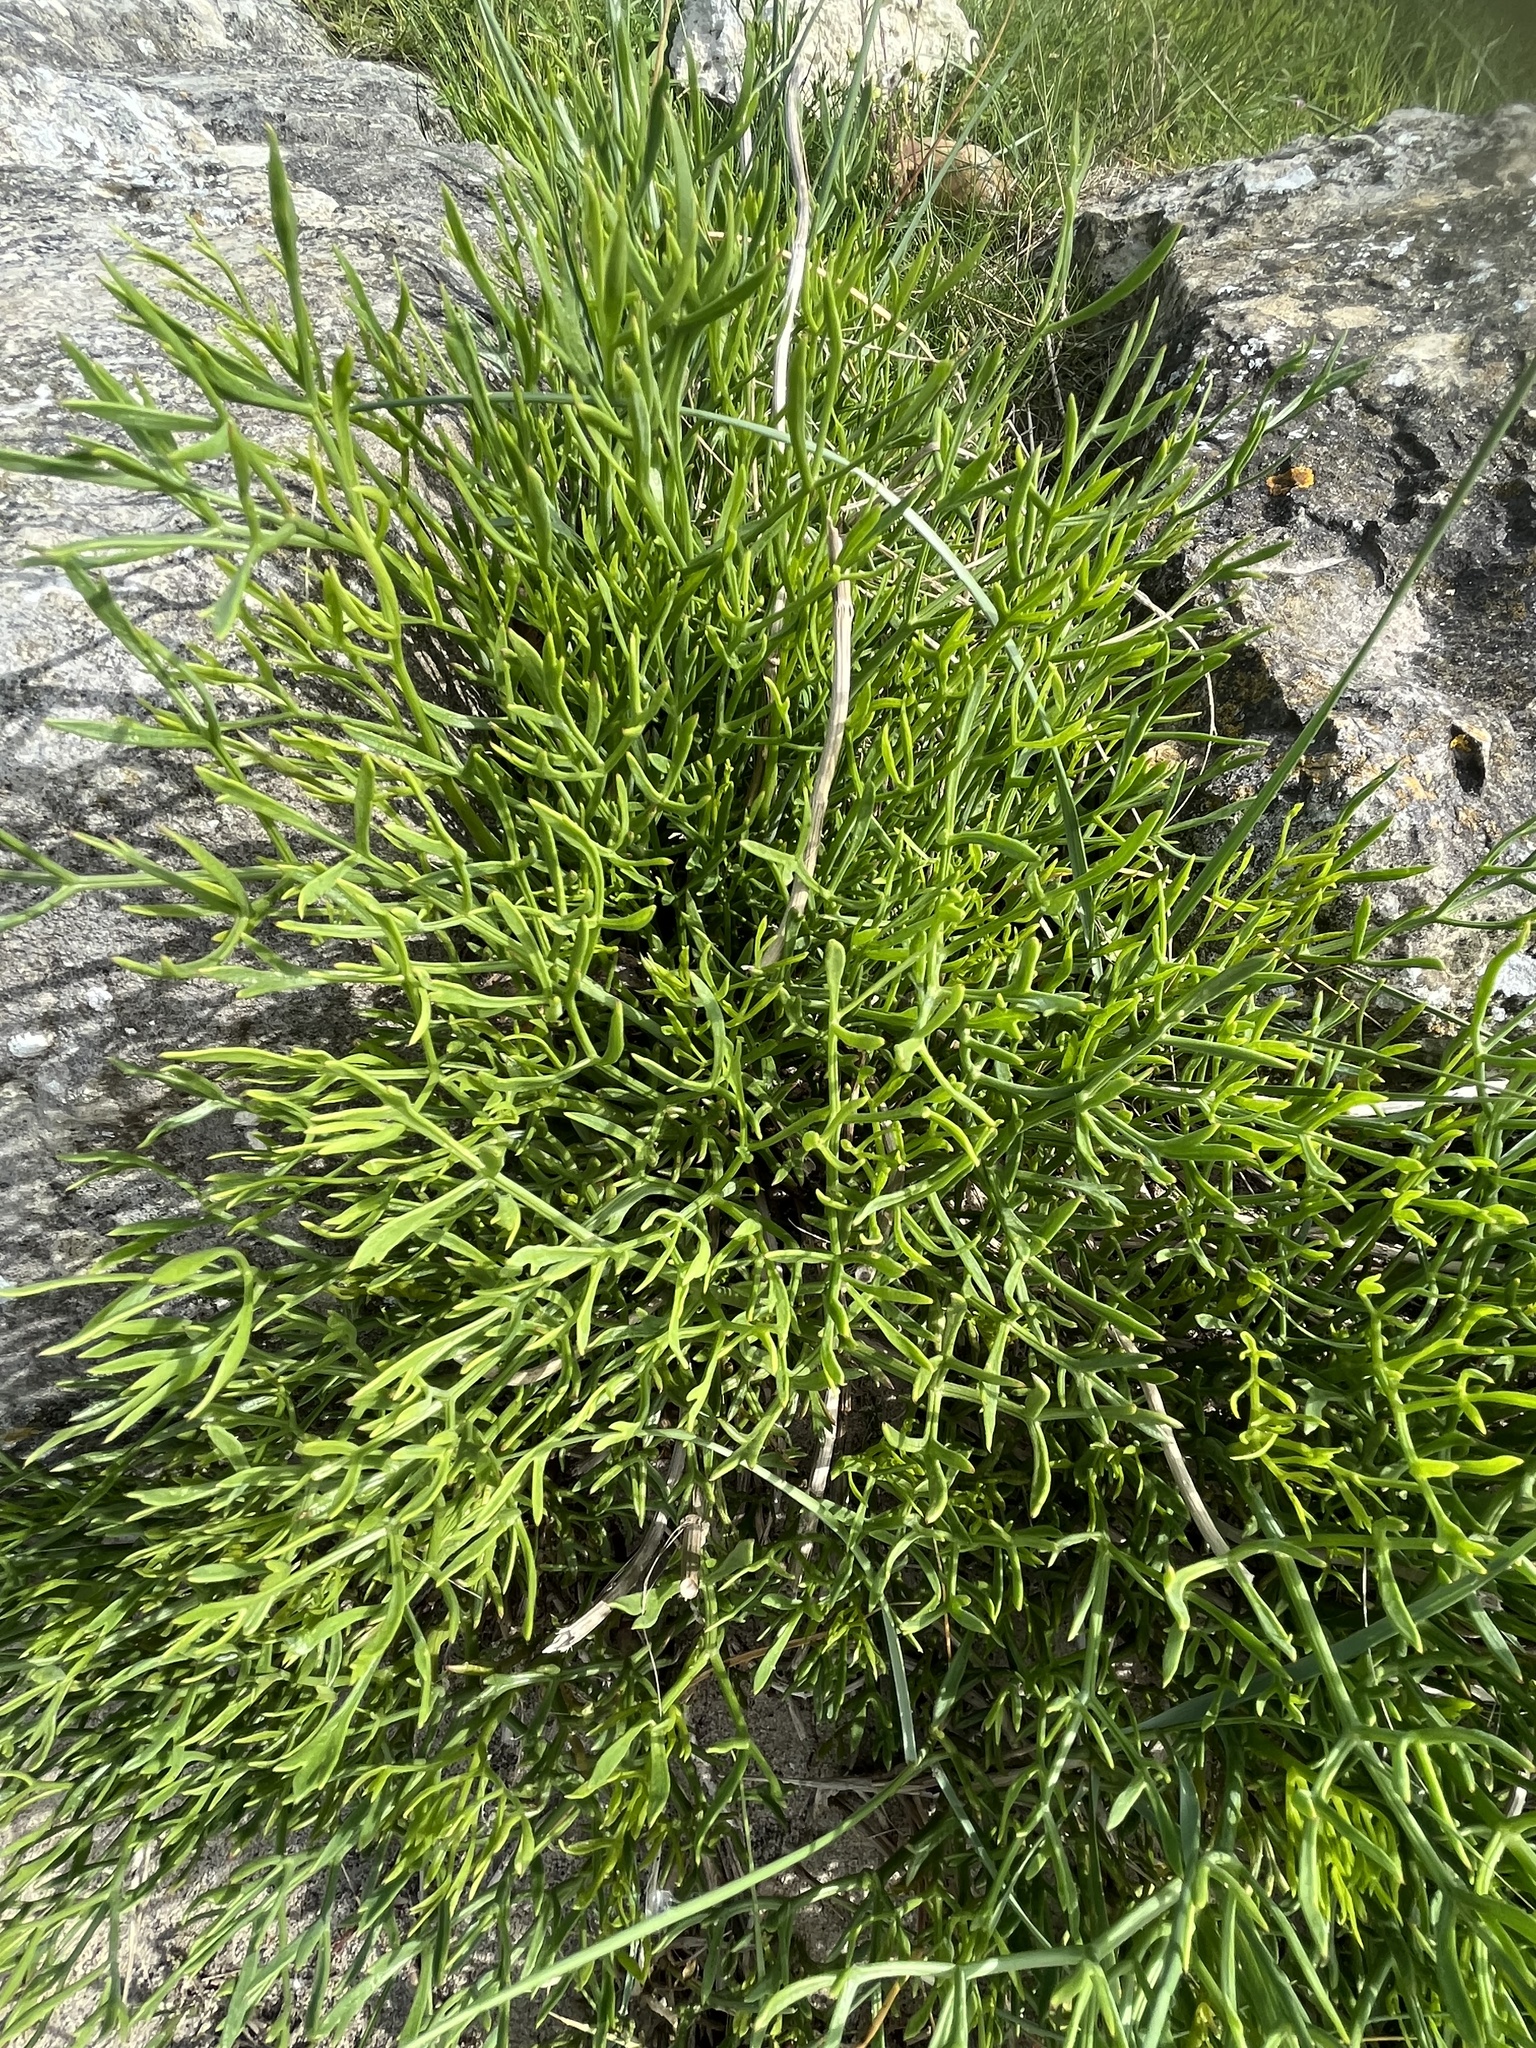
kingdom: Plantae
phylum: Tracheophyta
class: Magnoliopsida
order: Apiales
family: Apiaceae
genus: Crithmum
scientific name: Crithmum maritimum
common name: Rock samphire
